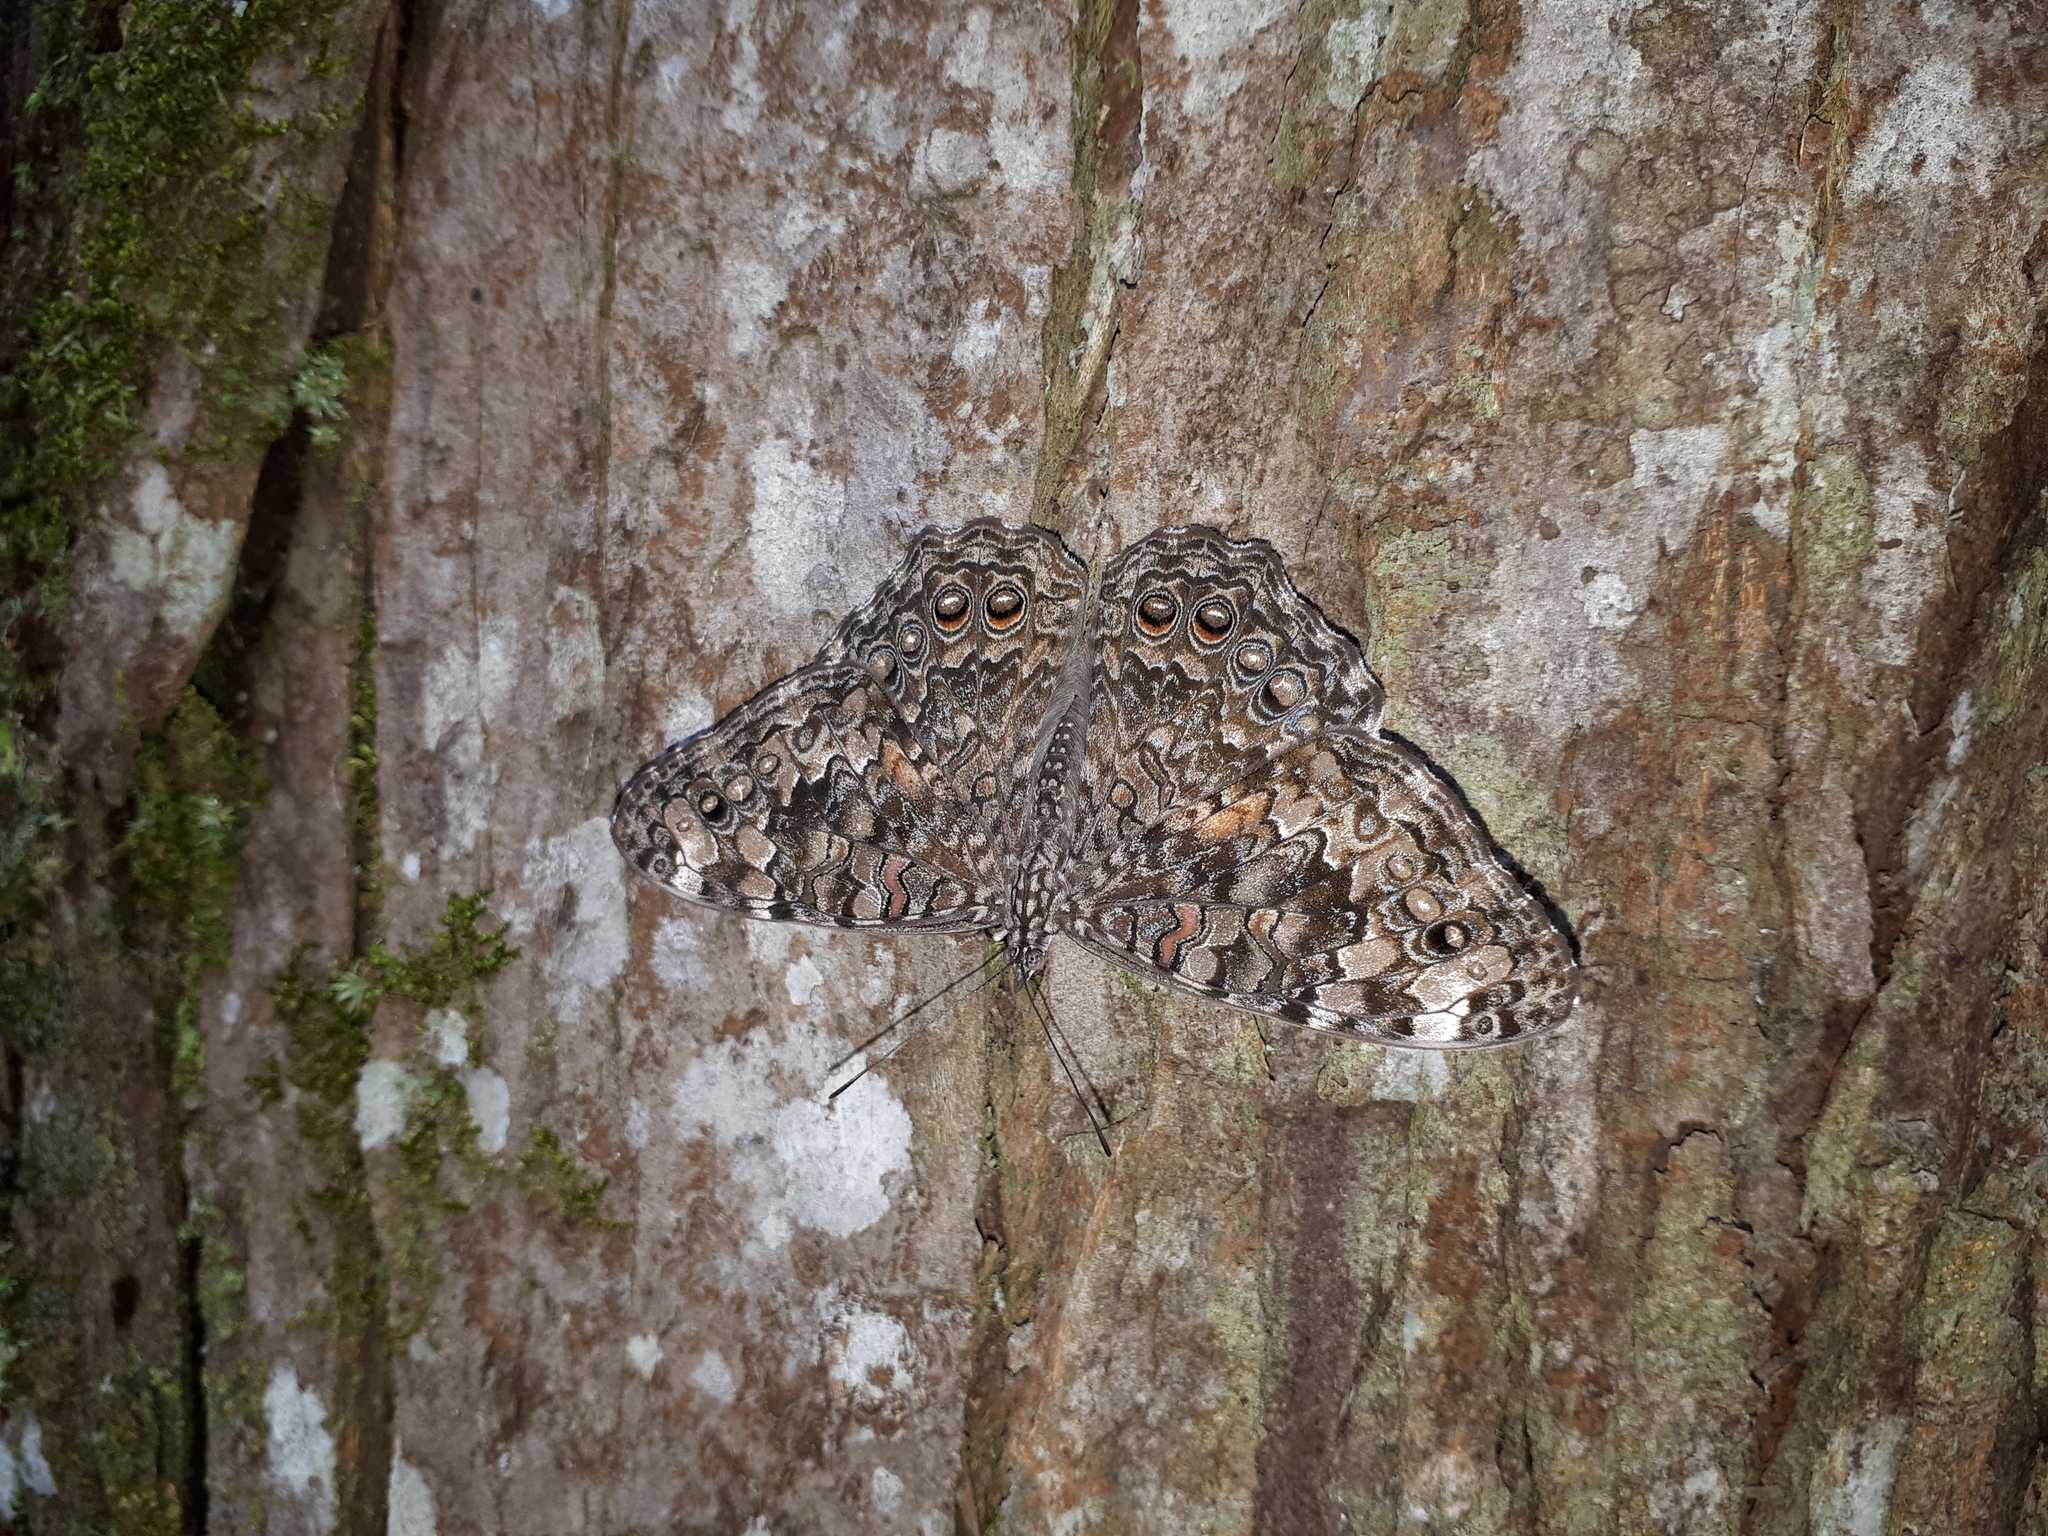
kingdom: Animalia
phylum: Arthropoda
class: Insecta
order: Lepidoptera
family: Nymphalidae
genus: Hamadryas
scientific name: Hamadryas februa
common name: Gray cracker
